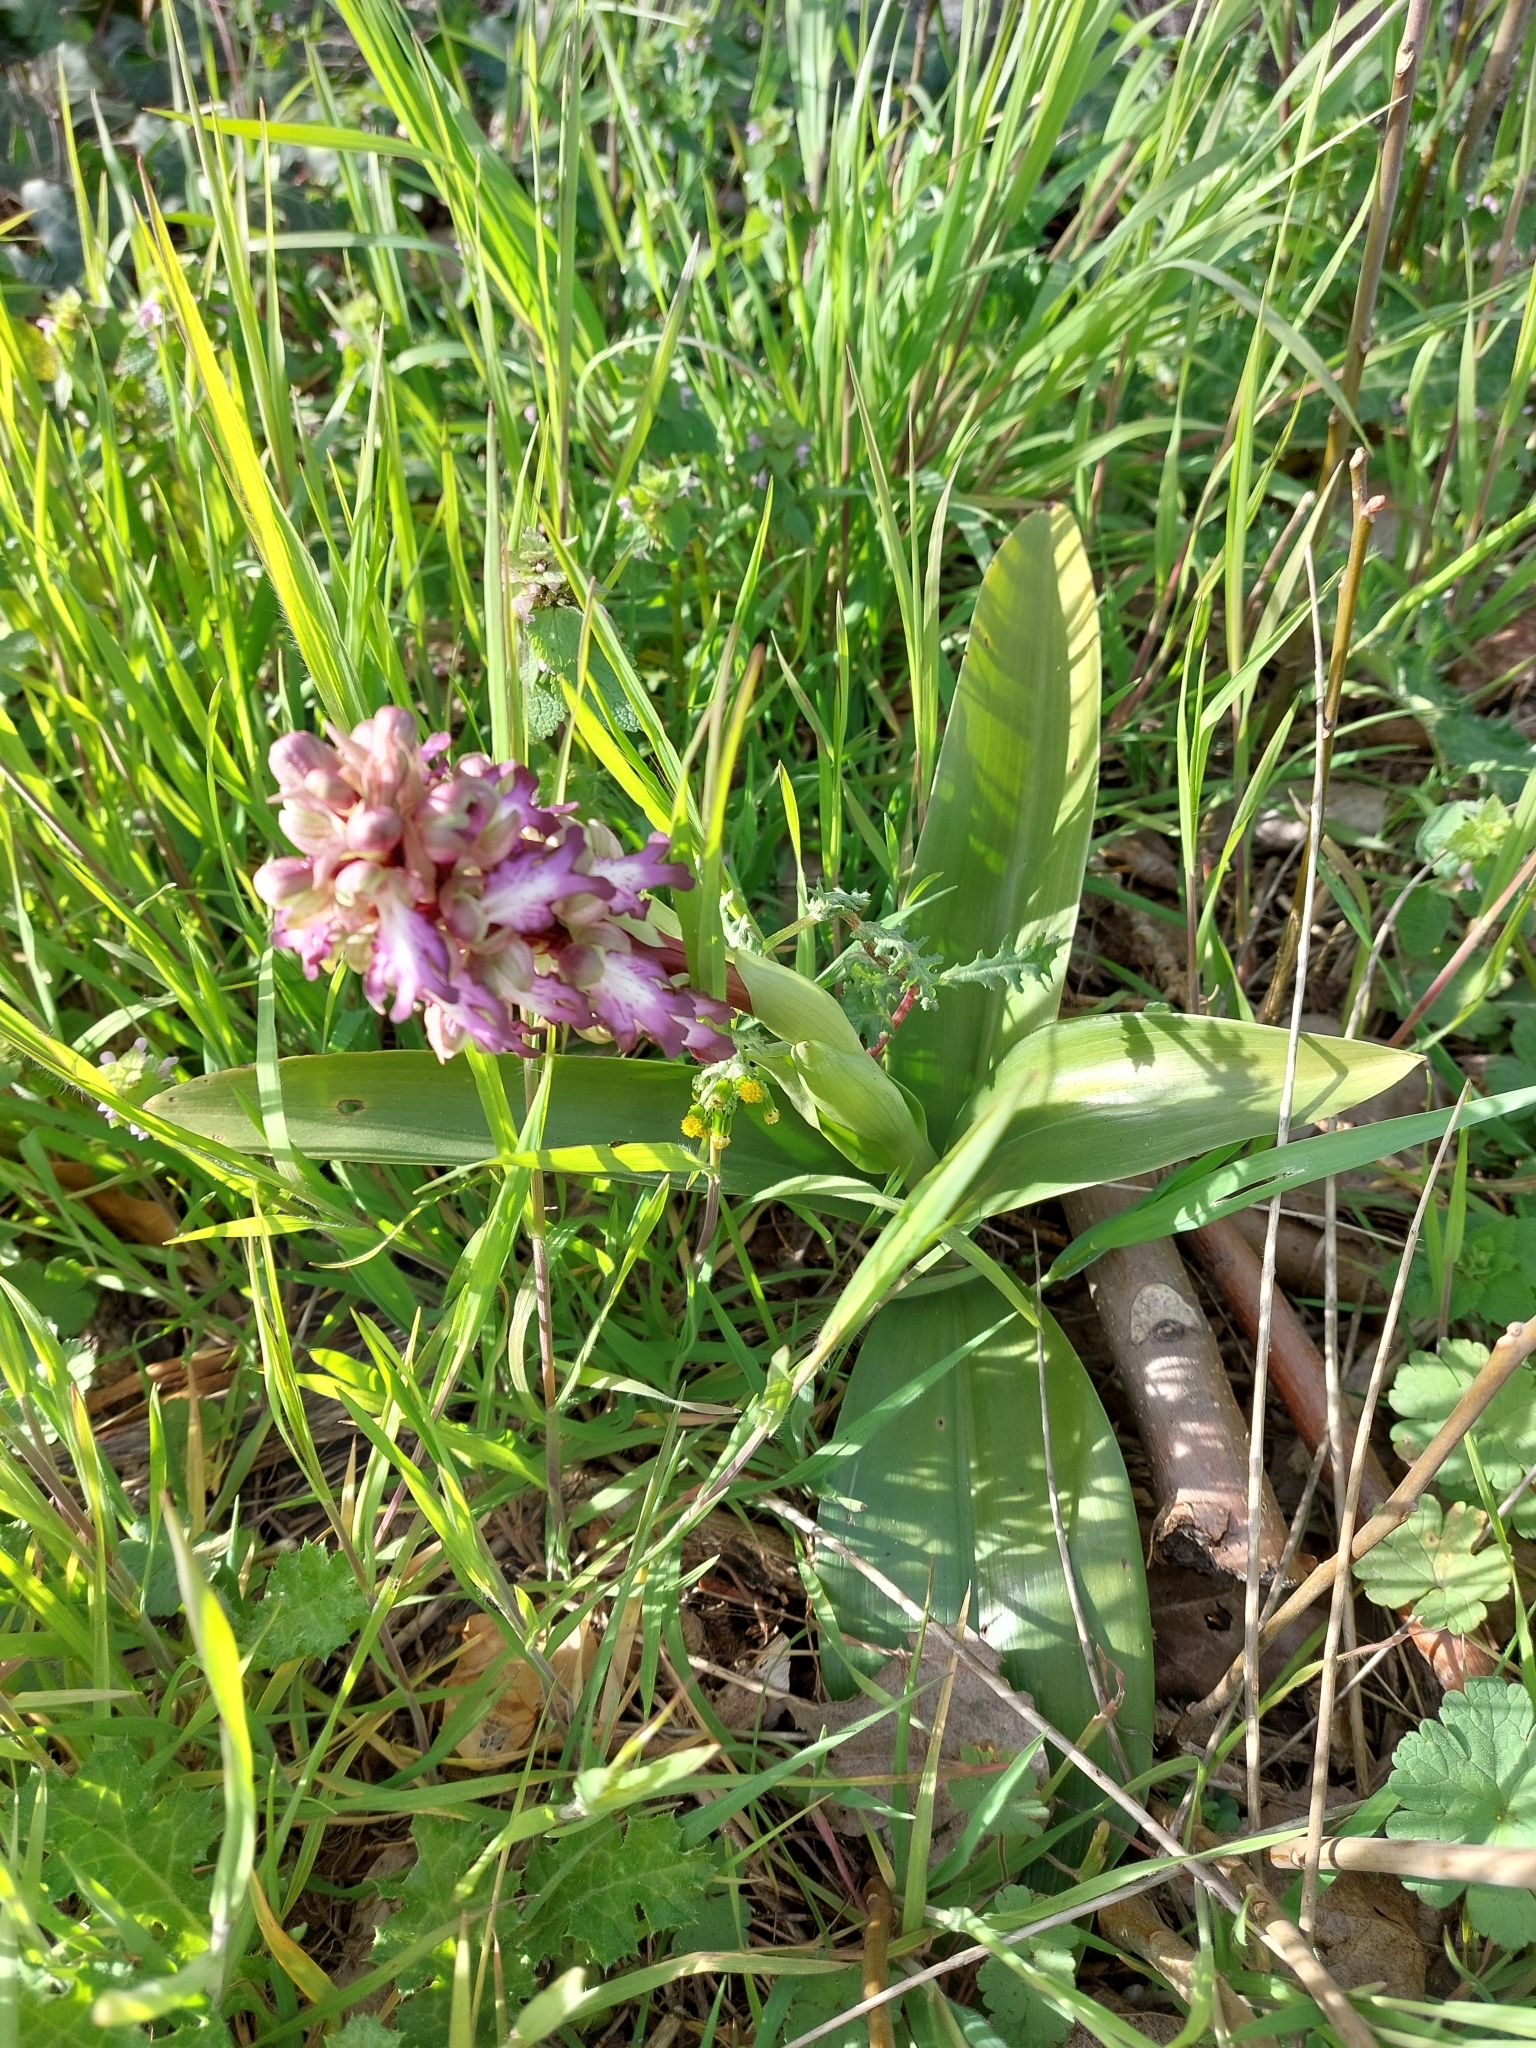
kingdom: Plantae
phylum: Tracheophyta
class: Liliopsida
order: Asparagales
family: Orchidaceae
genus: Himantoglossum
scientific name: Himantoglossum robertianum
